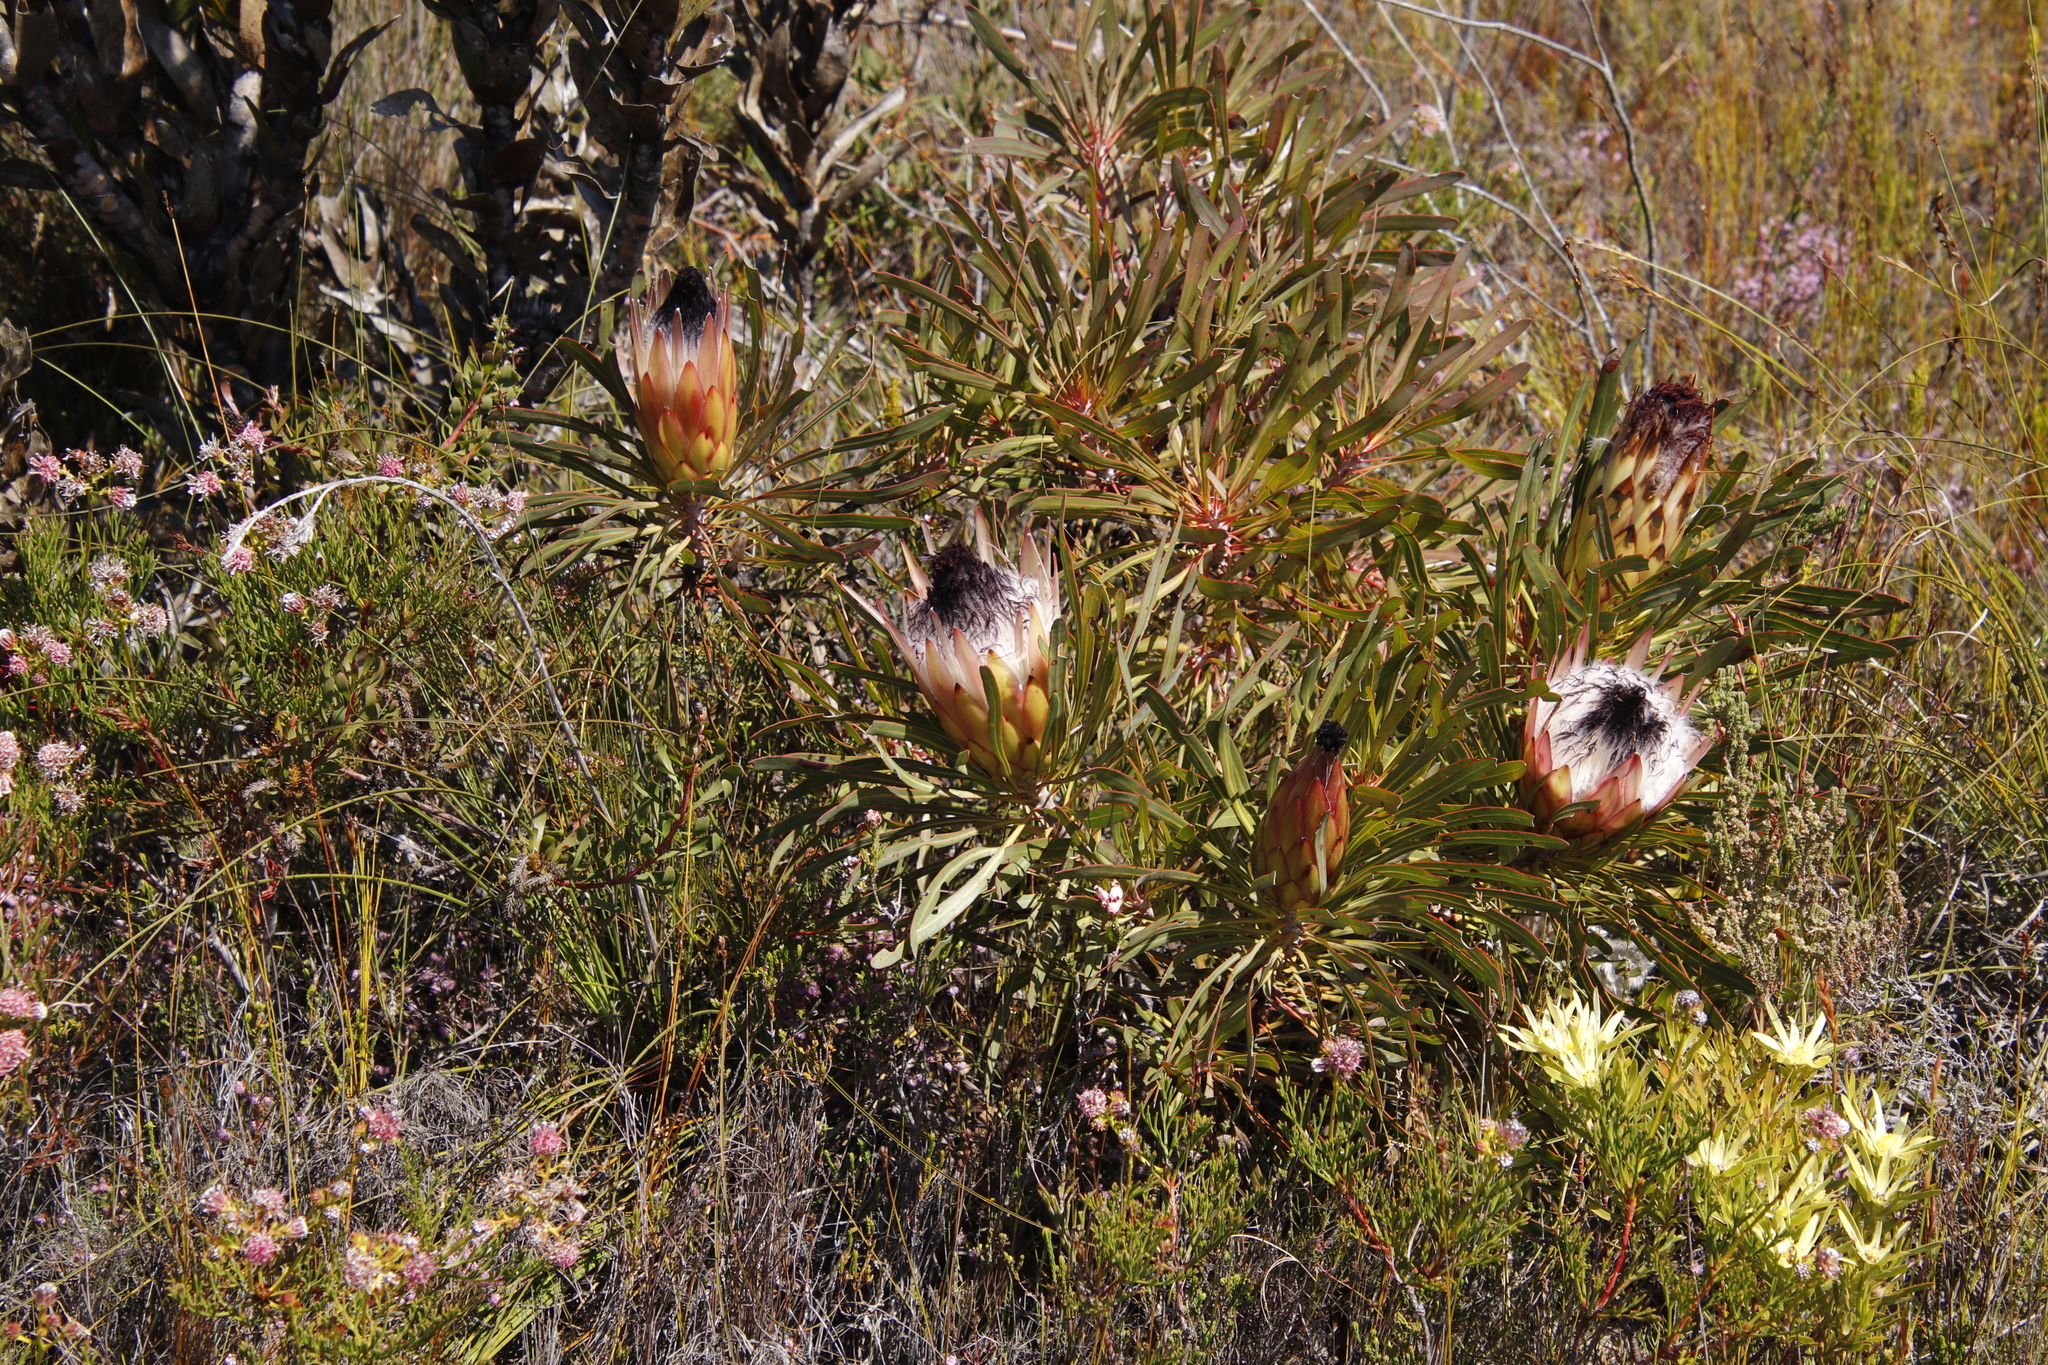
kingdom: Plantae
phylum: Tracheophyta
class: Magnoliopsida
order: Proteales
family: Proteaceae
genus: Protea
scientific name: Protea longifolia
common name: Long-leaf sugarbush
